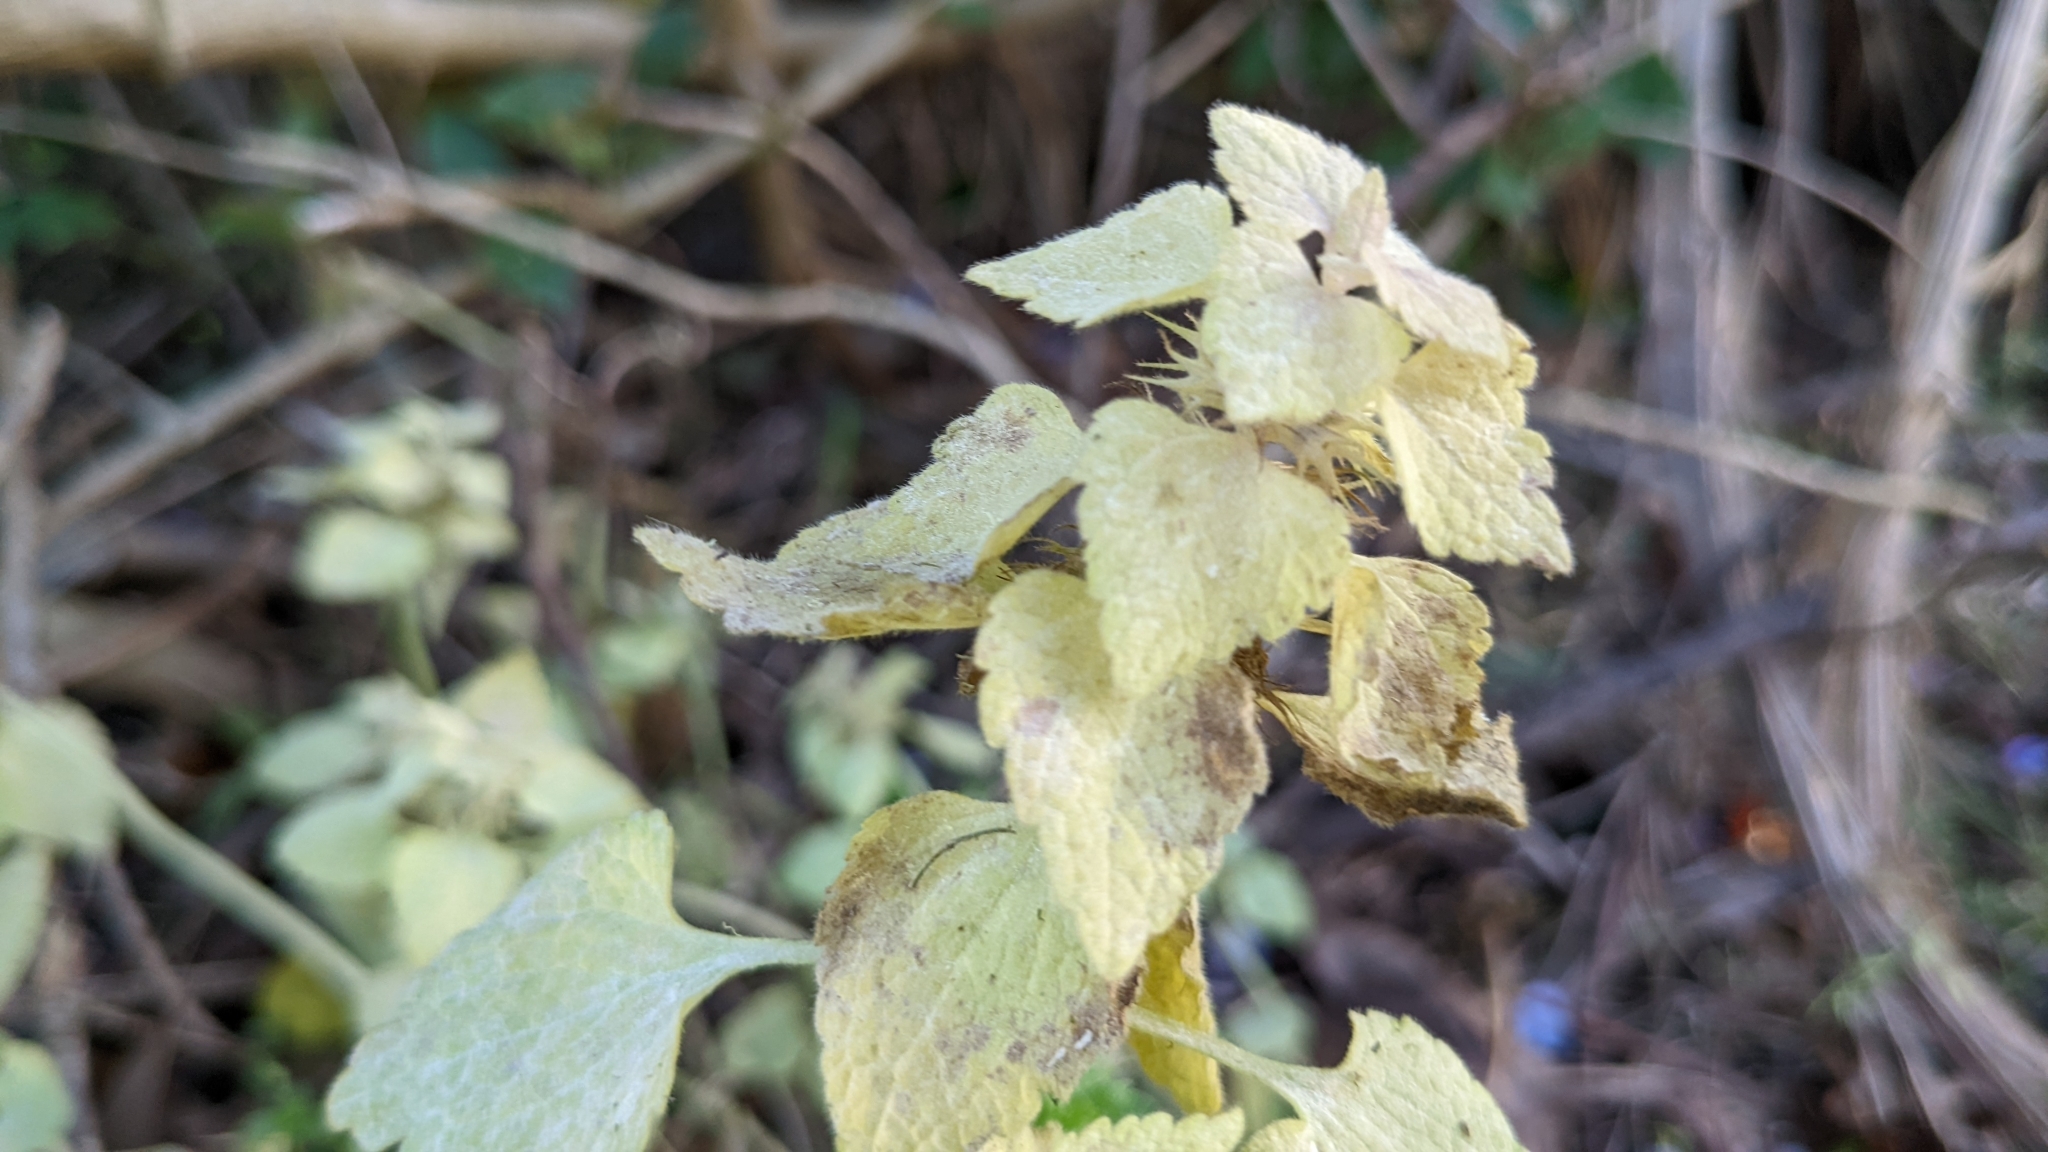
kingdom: Plantae
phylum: Tracheophyta
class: Magnoliopsida
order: Lamiales
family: Lamiaceae
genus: Lamium
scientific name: Lamium purpureum
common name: Red dead-nettle
